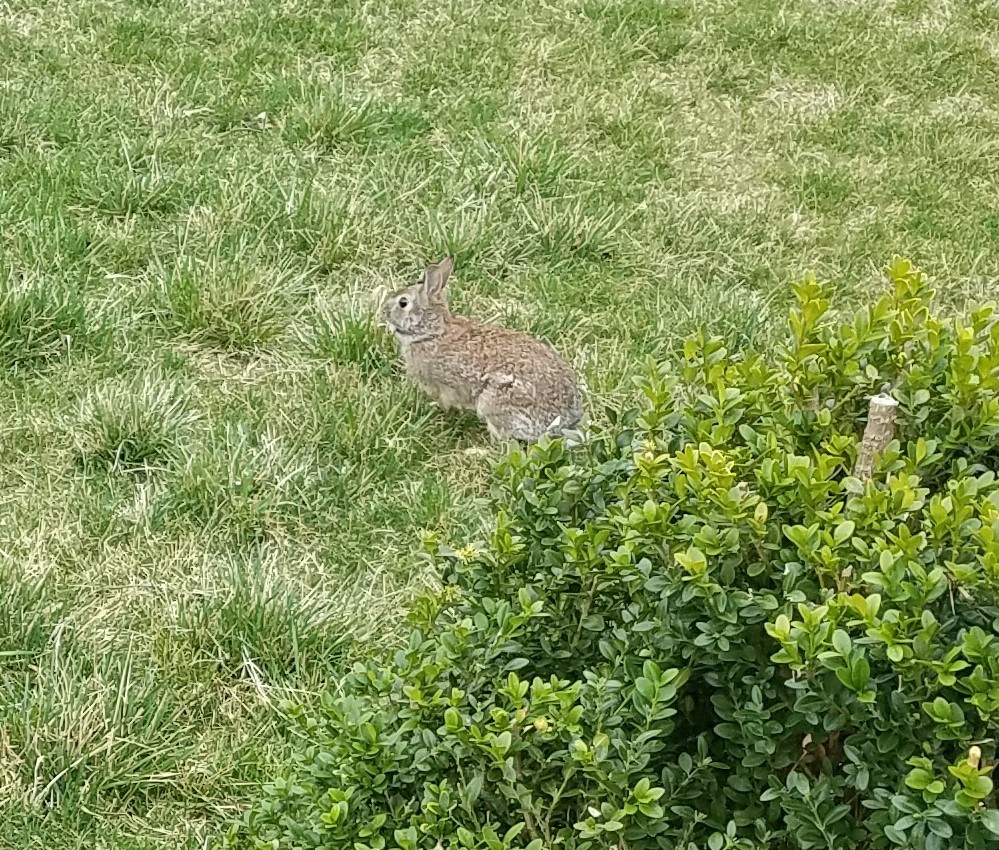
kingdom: Animalia
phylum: Chordata
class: Mammalia
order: Lagomorpha
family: Leporidae
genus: Sylvilagus
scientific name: Sylvilagus floridanus
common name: Eastern cottontail
